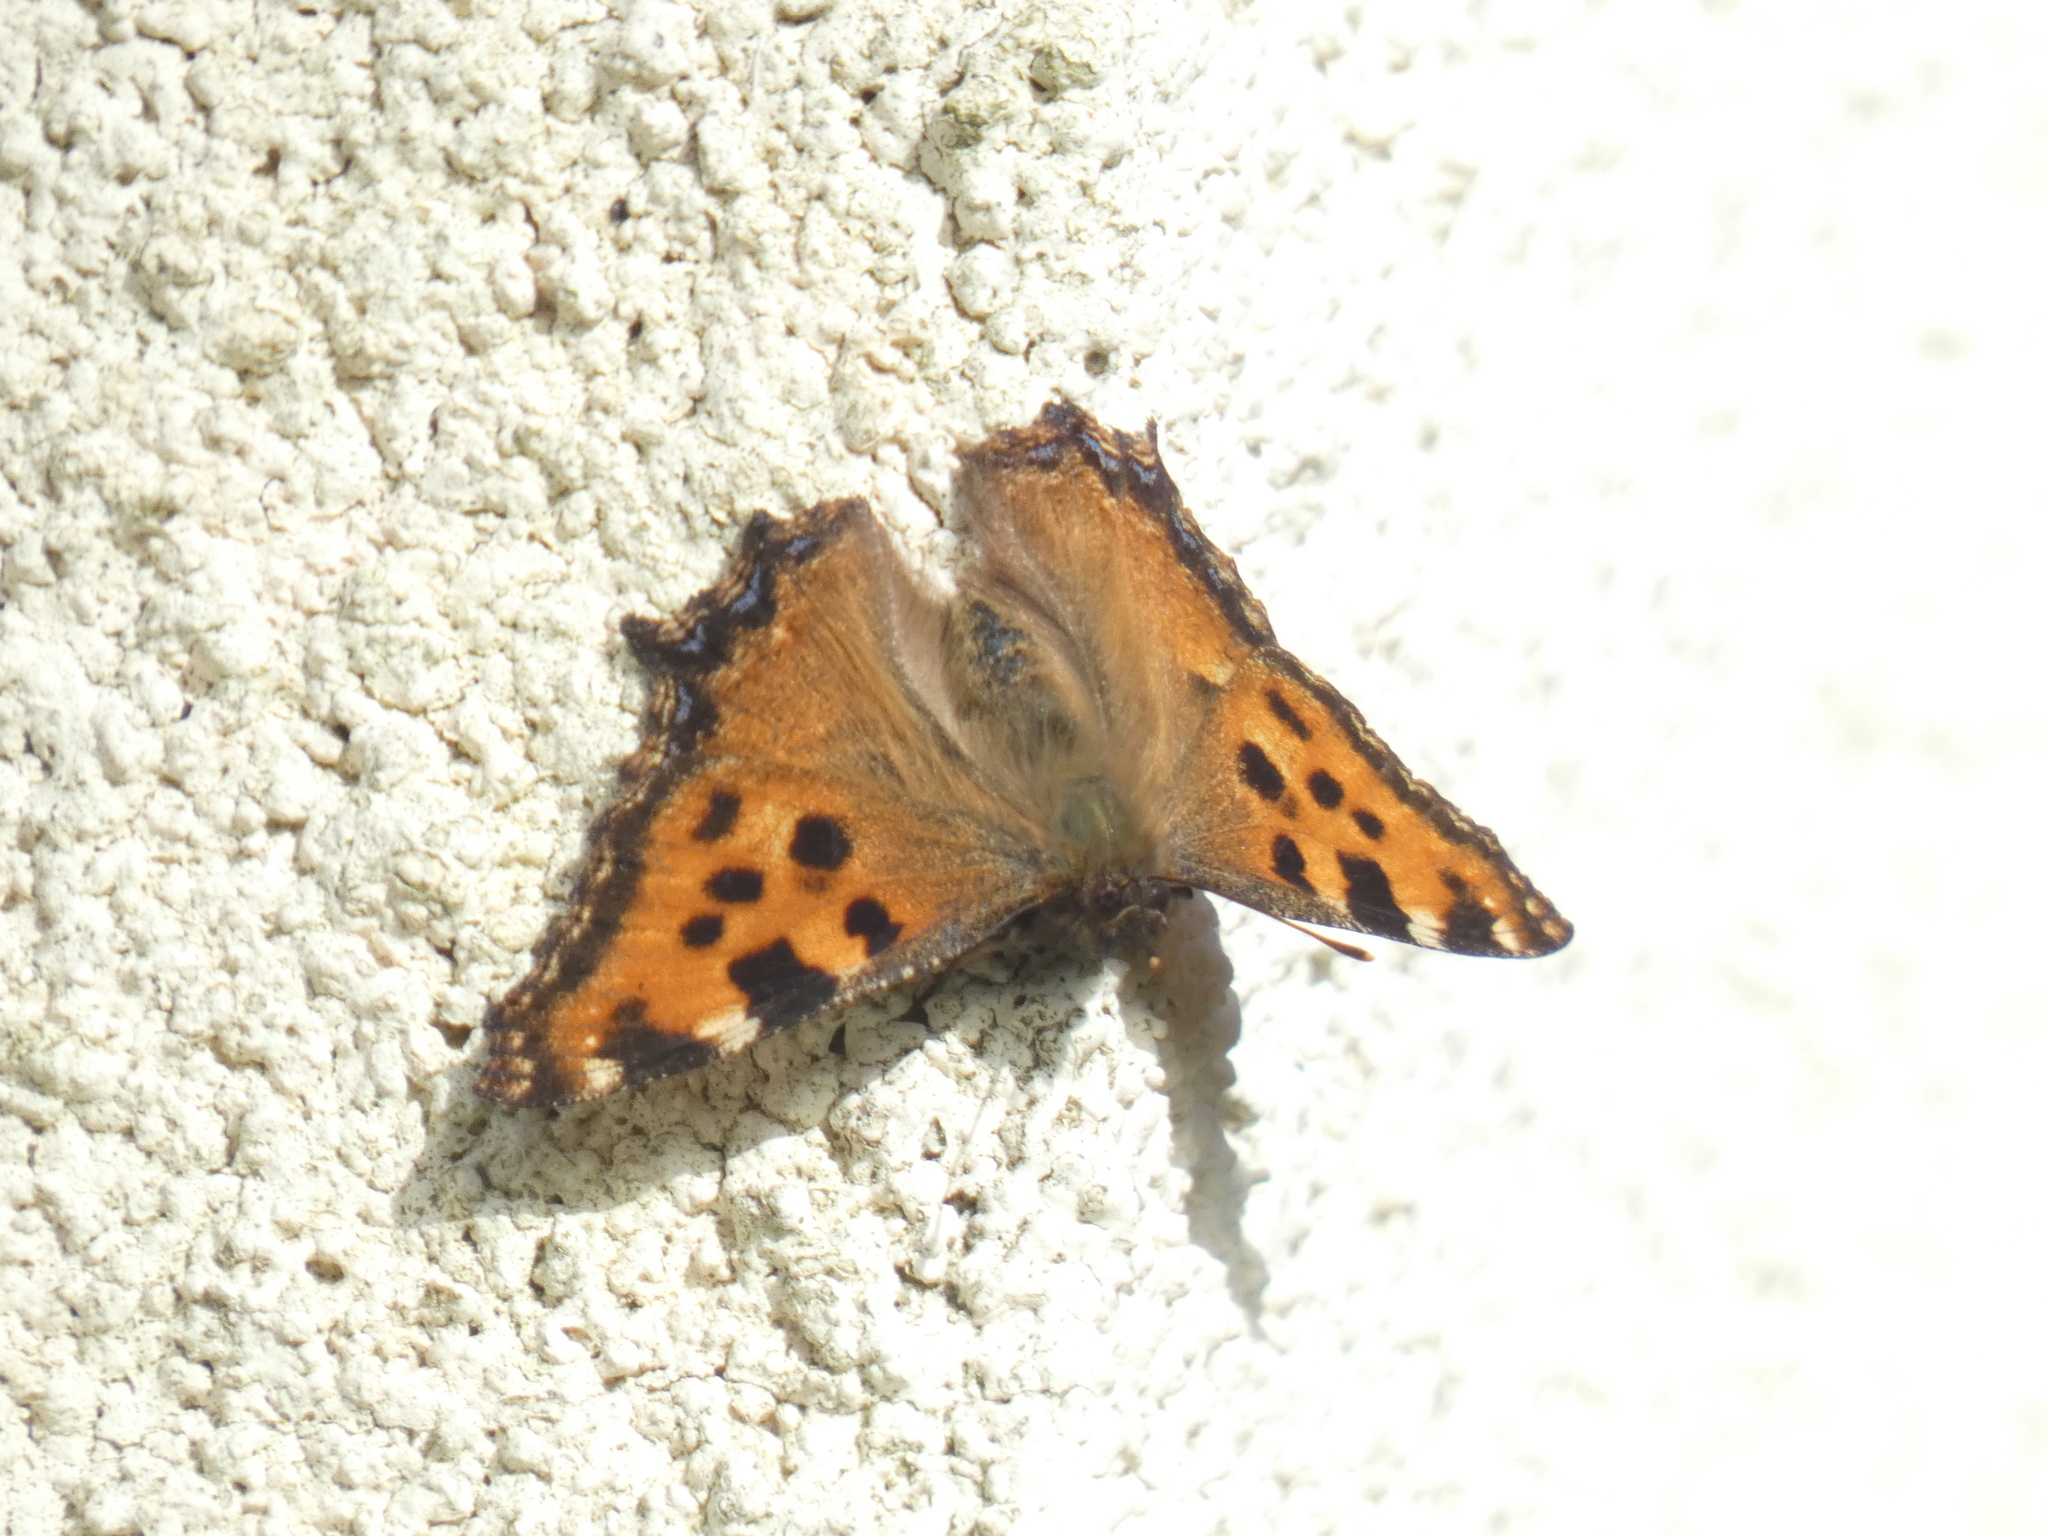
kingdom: Animalia
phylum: Arthropoda
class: Insecta
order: Lepidoptera
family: Nymphalidae
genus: Nymphalis
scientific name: Nymphalis polychloros
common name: Large tortoiseshell
